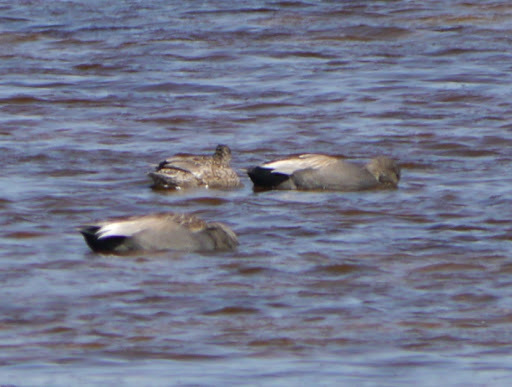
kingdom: Animalia
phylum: Chordata
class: Aves
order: Anseriformes
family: Anatidae
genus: Mareca
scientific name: Mareca strepera
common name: Gadwall
